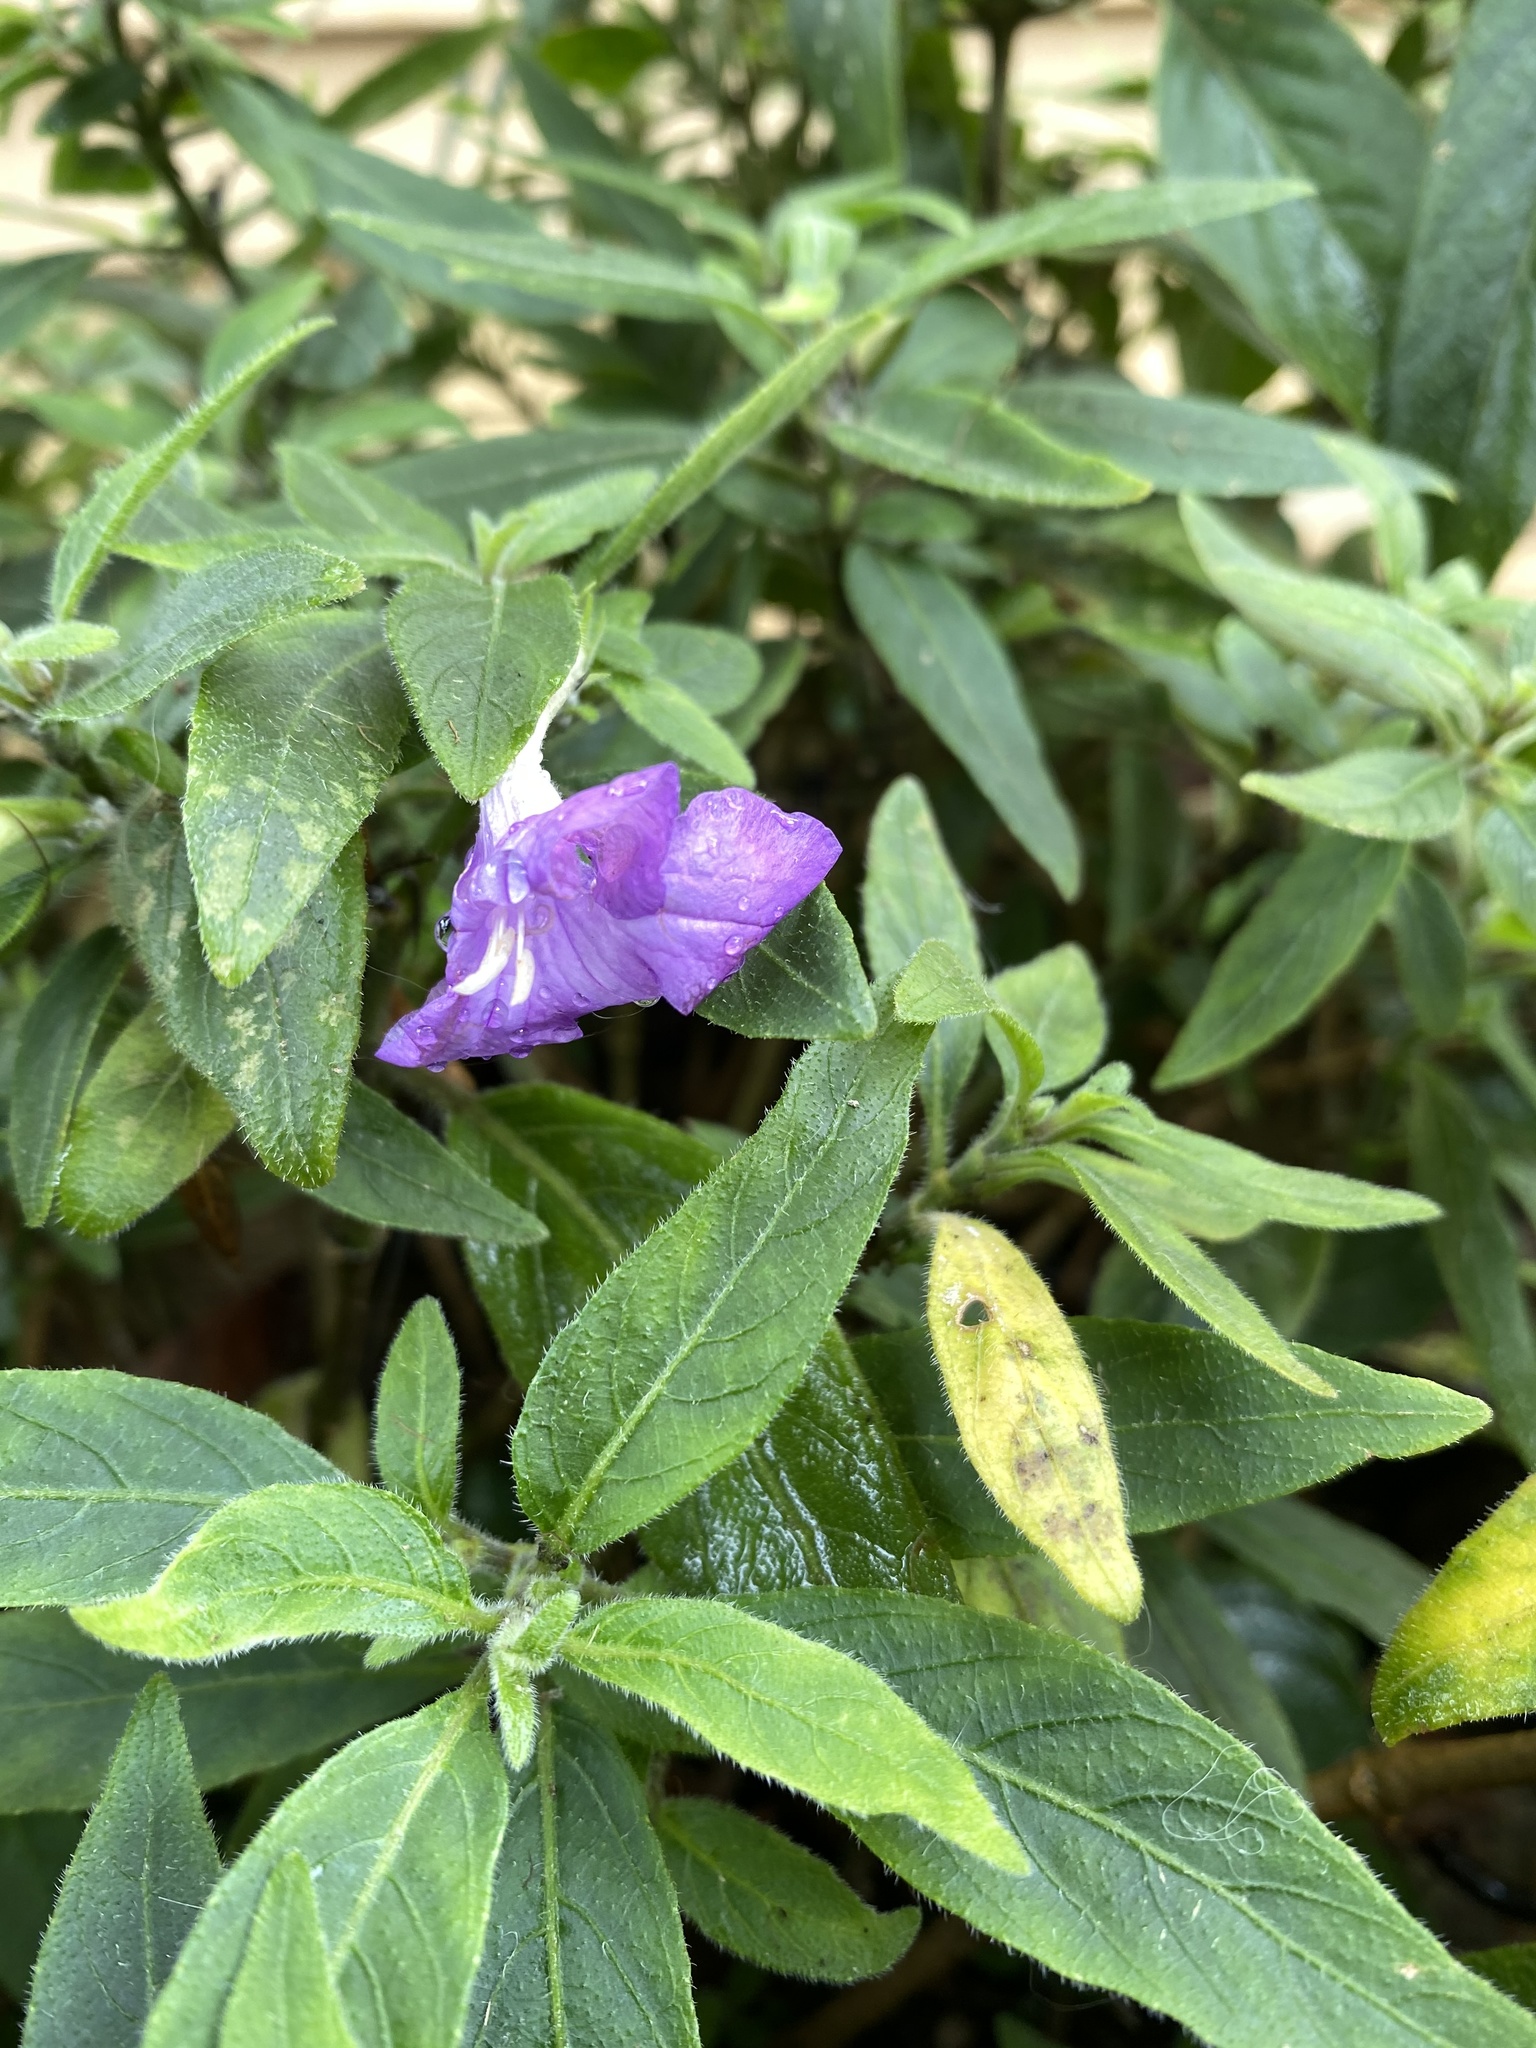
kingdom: Plantae
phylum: Tracheophyta
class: Magnoliopsida
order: Lamiales
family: Acanthaceae
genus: Ruellia
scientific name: Ruellia squarrosa
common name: Water bluebell
